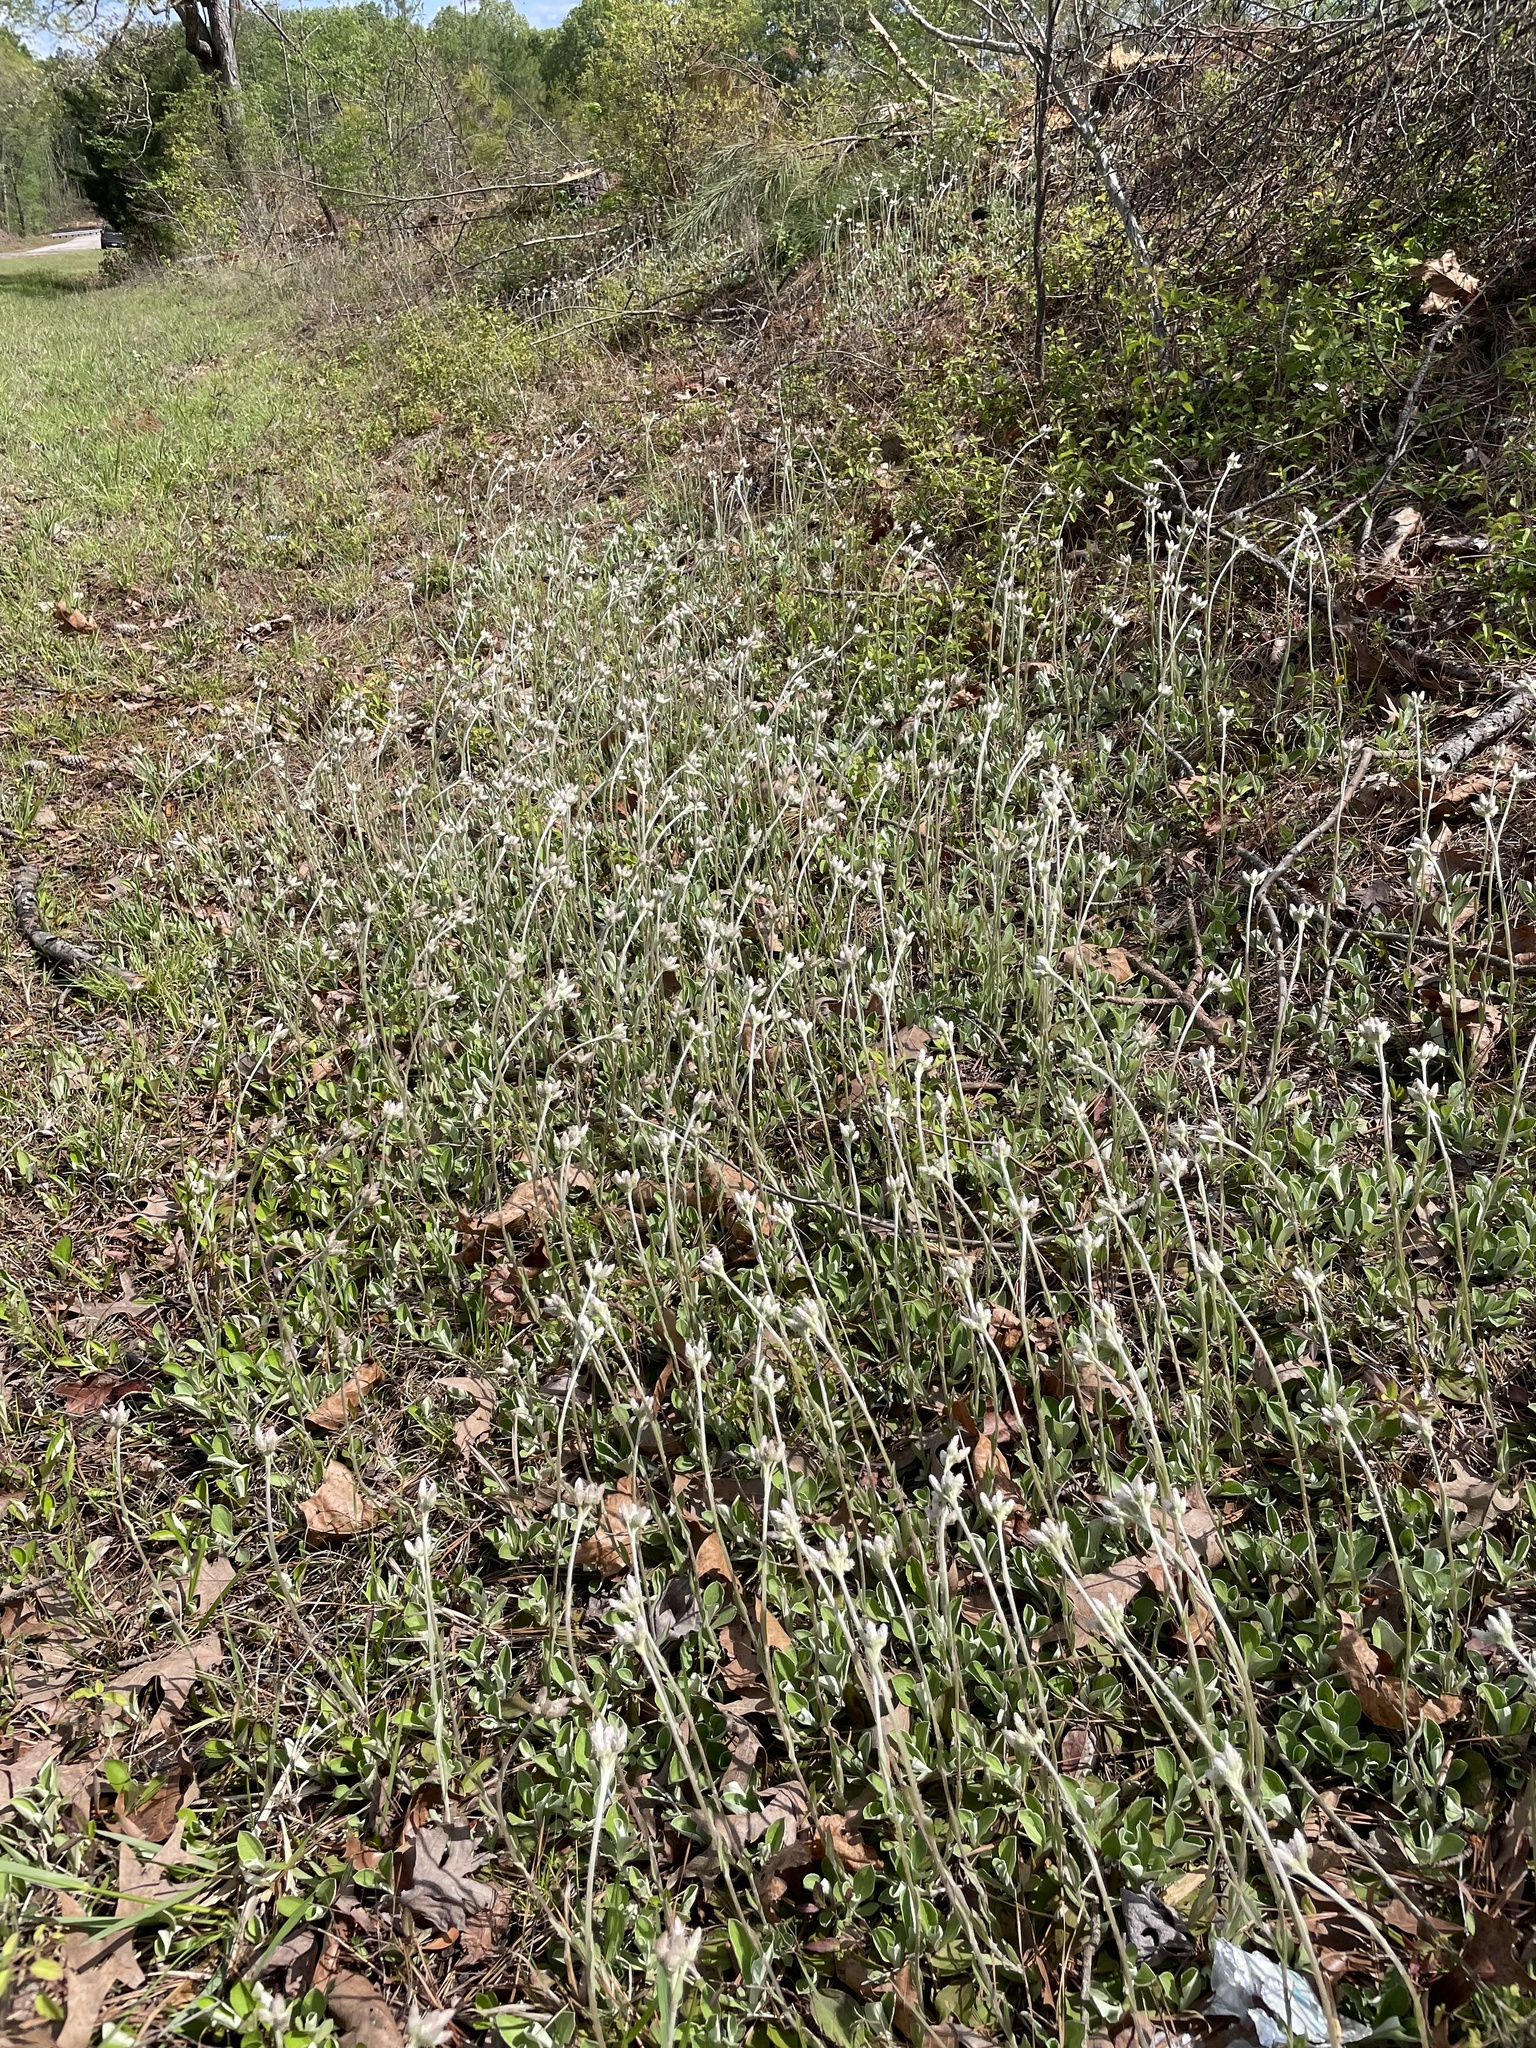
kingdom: Plantae
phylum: Tracheophyta
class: Magnoliopsida
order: Asterales
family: Asteraceae
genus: Antennaria
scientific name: Antennaria parlinii
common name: Parlin's pussytoes
